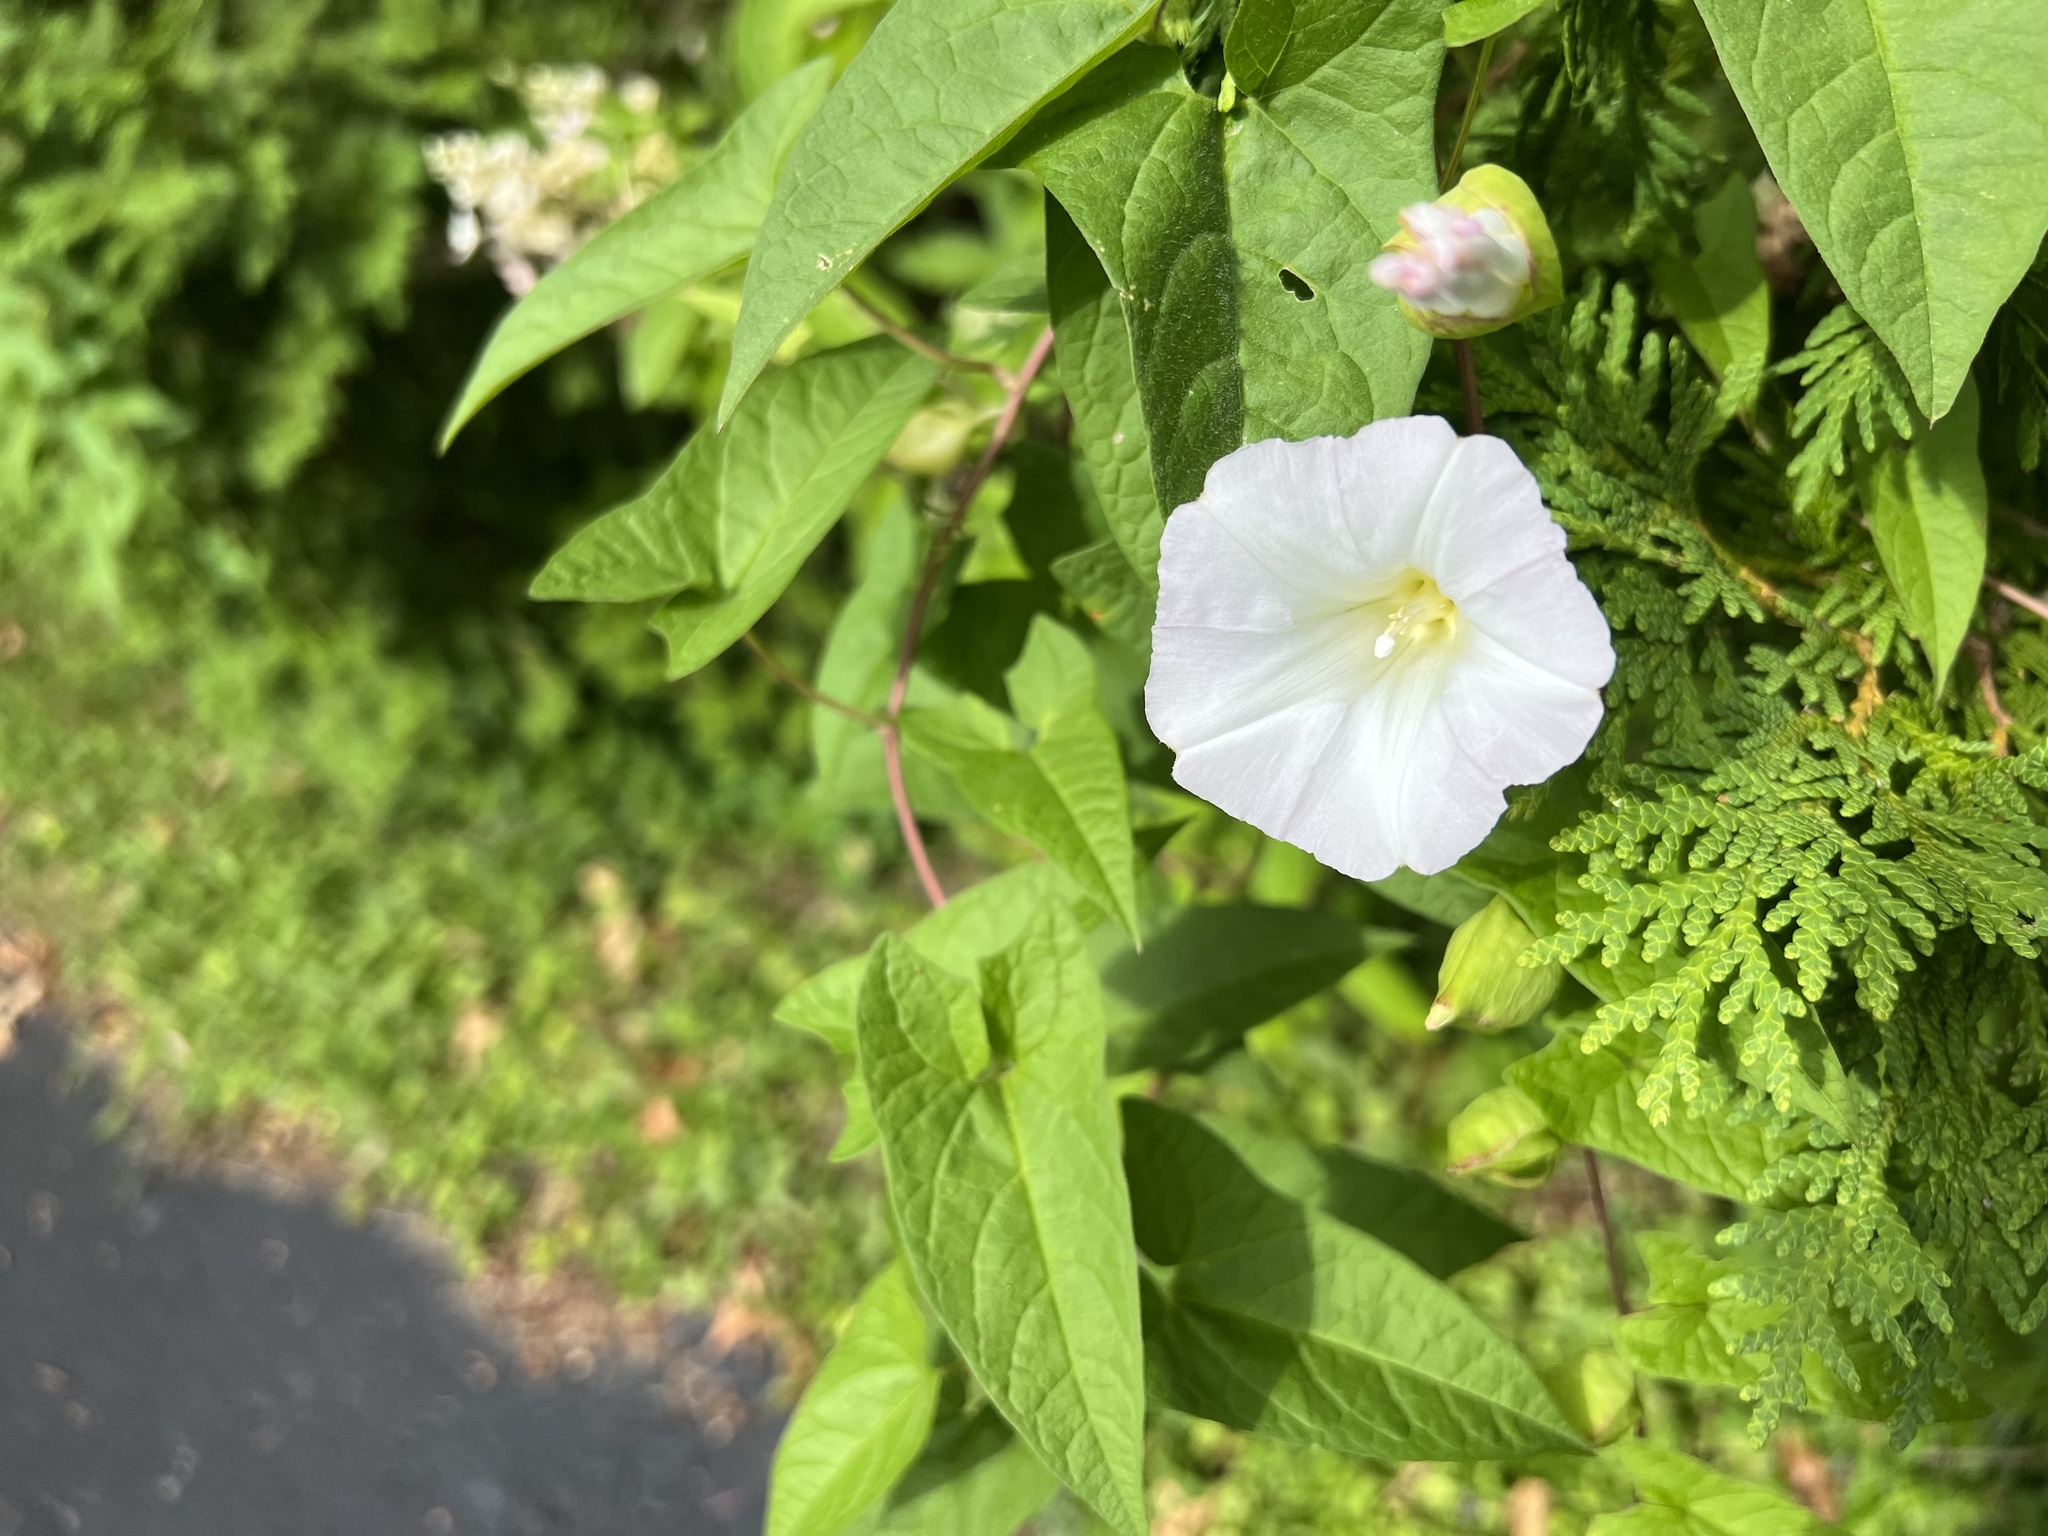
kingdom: Plantae
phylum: Tracheophyta
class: Magnoliopsida
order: Solanales
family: Convolvulaceae
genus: Calystegia
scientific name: Calystegia sepium
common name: Hedge bindweed
